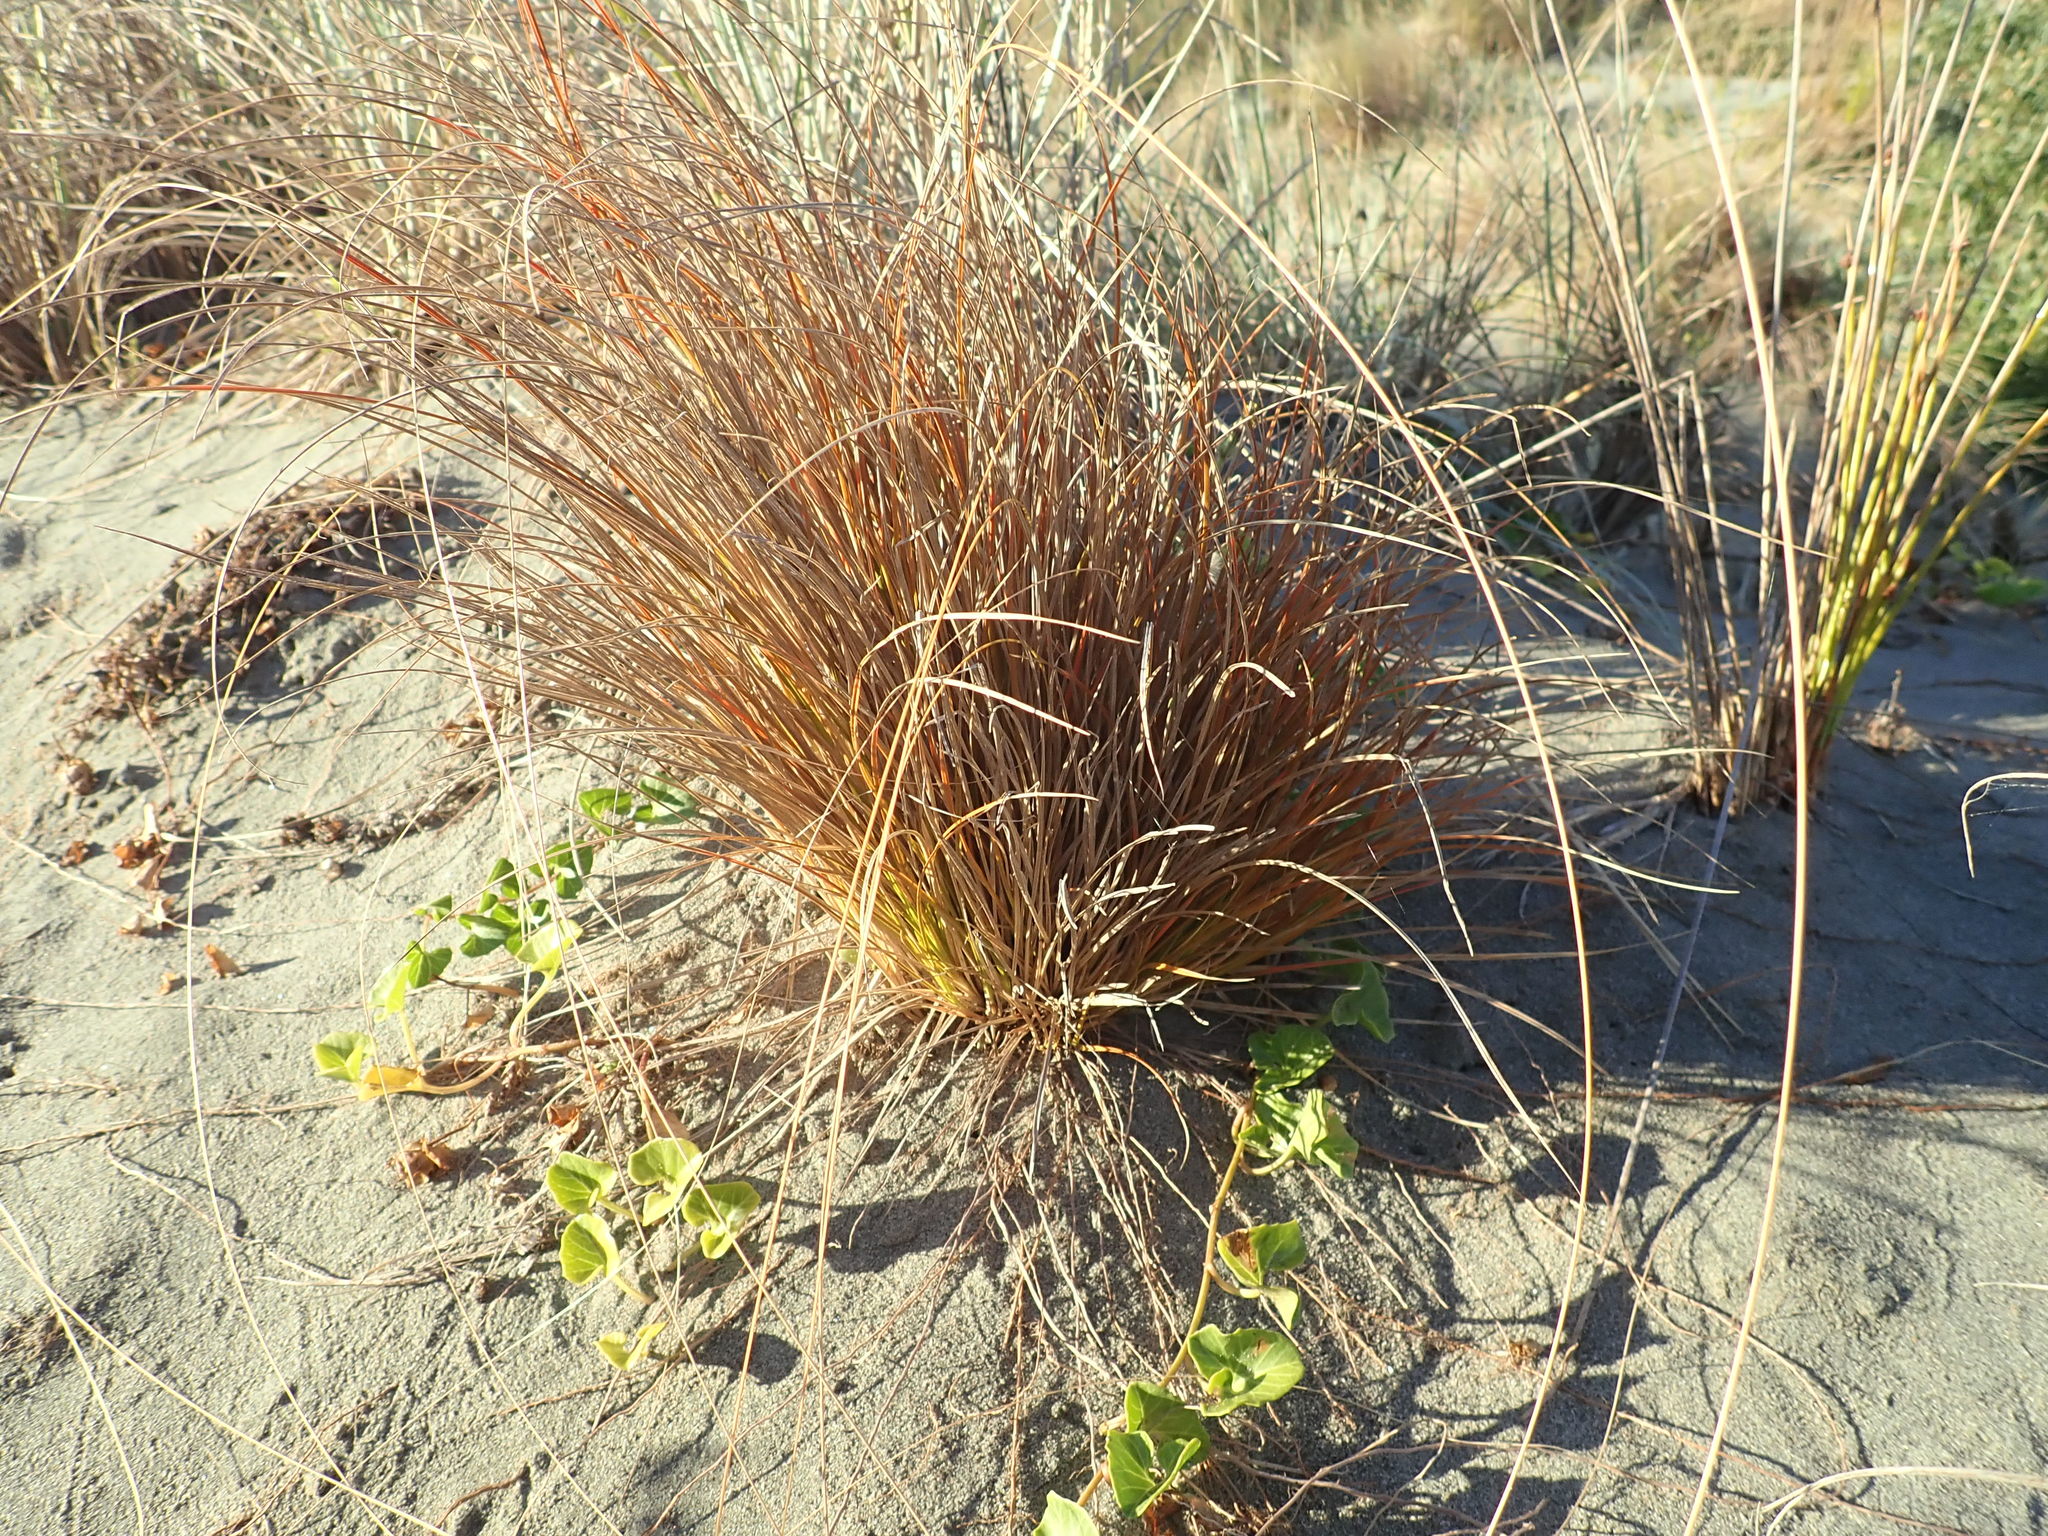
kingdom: Plantae
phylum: Tracheophyta
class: Liliopsida
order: Poales
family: Cyperaceae
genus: Carex
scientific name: Carex testacea
